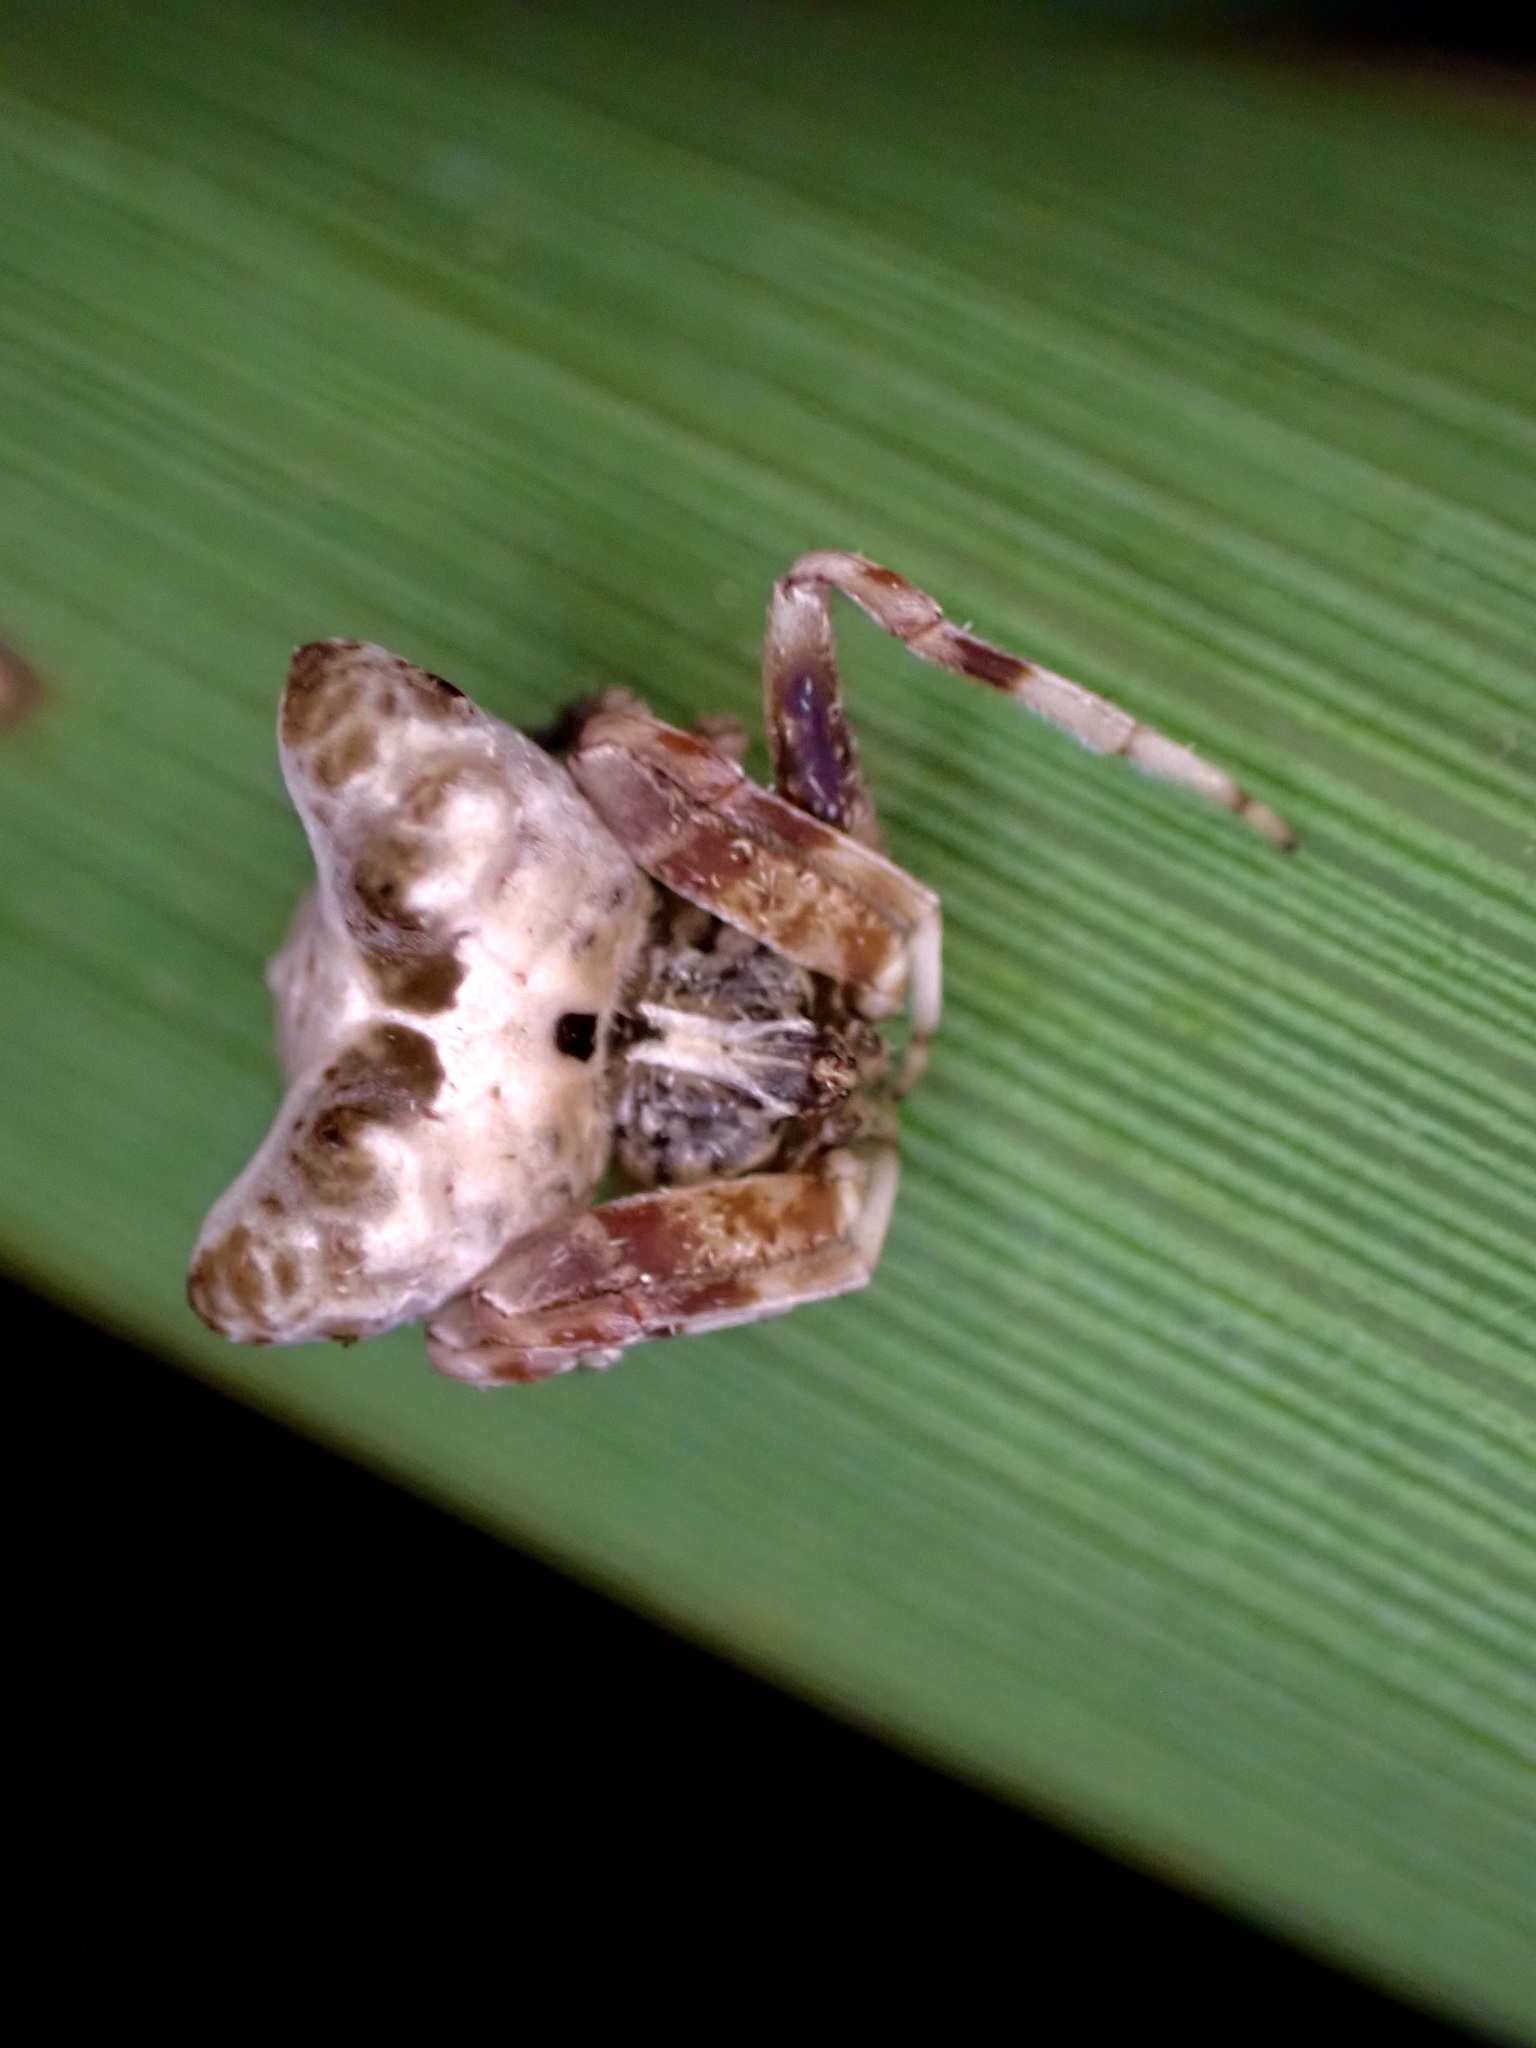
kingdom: Animalia
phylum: Arthropoda
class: Arachnida
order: Araneae
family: Araneidae
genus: Celaenia
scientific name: Celaenia olivacea
